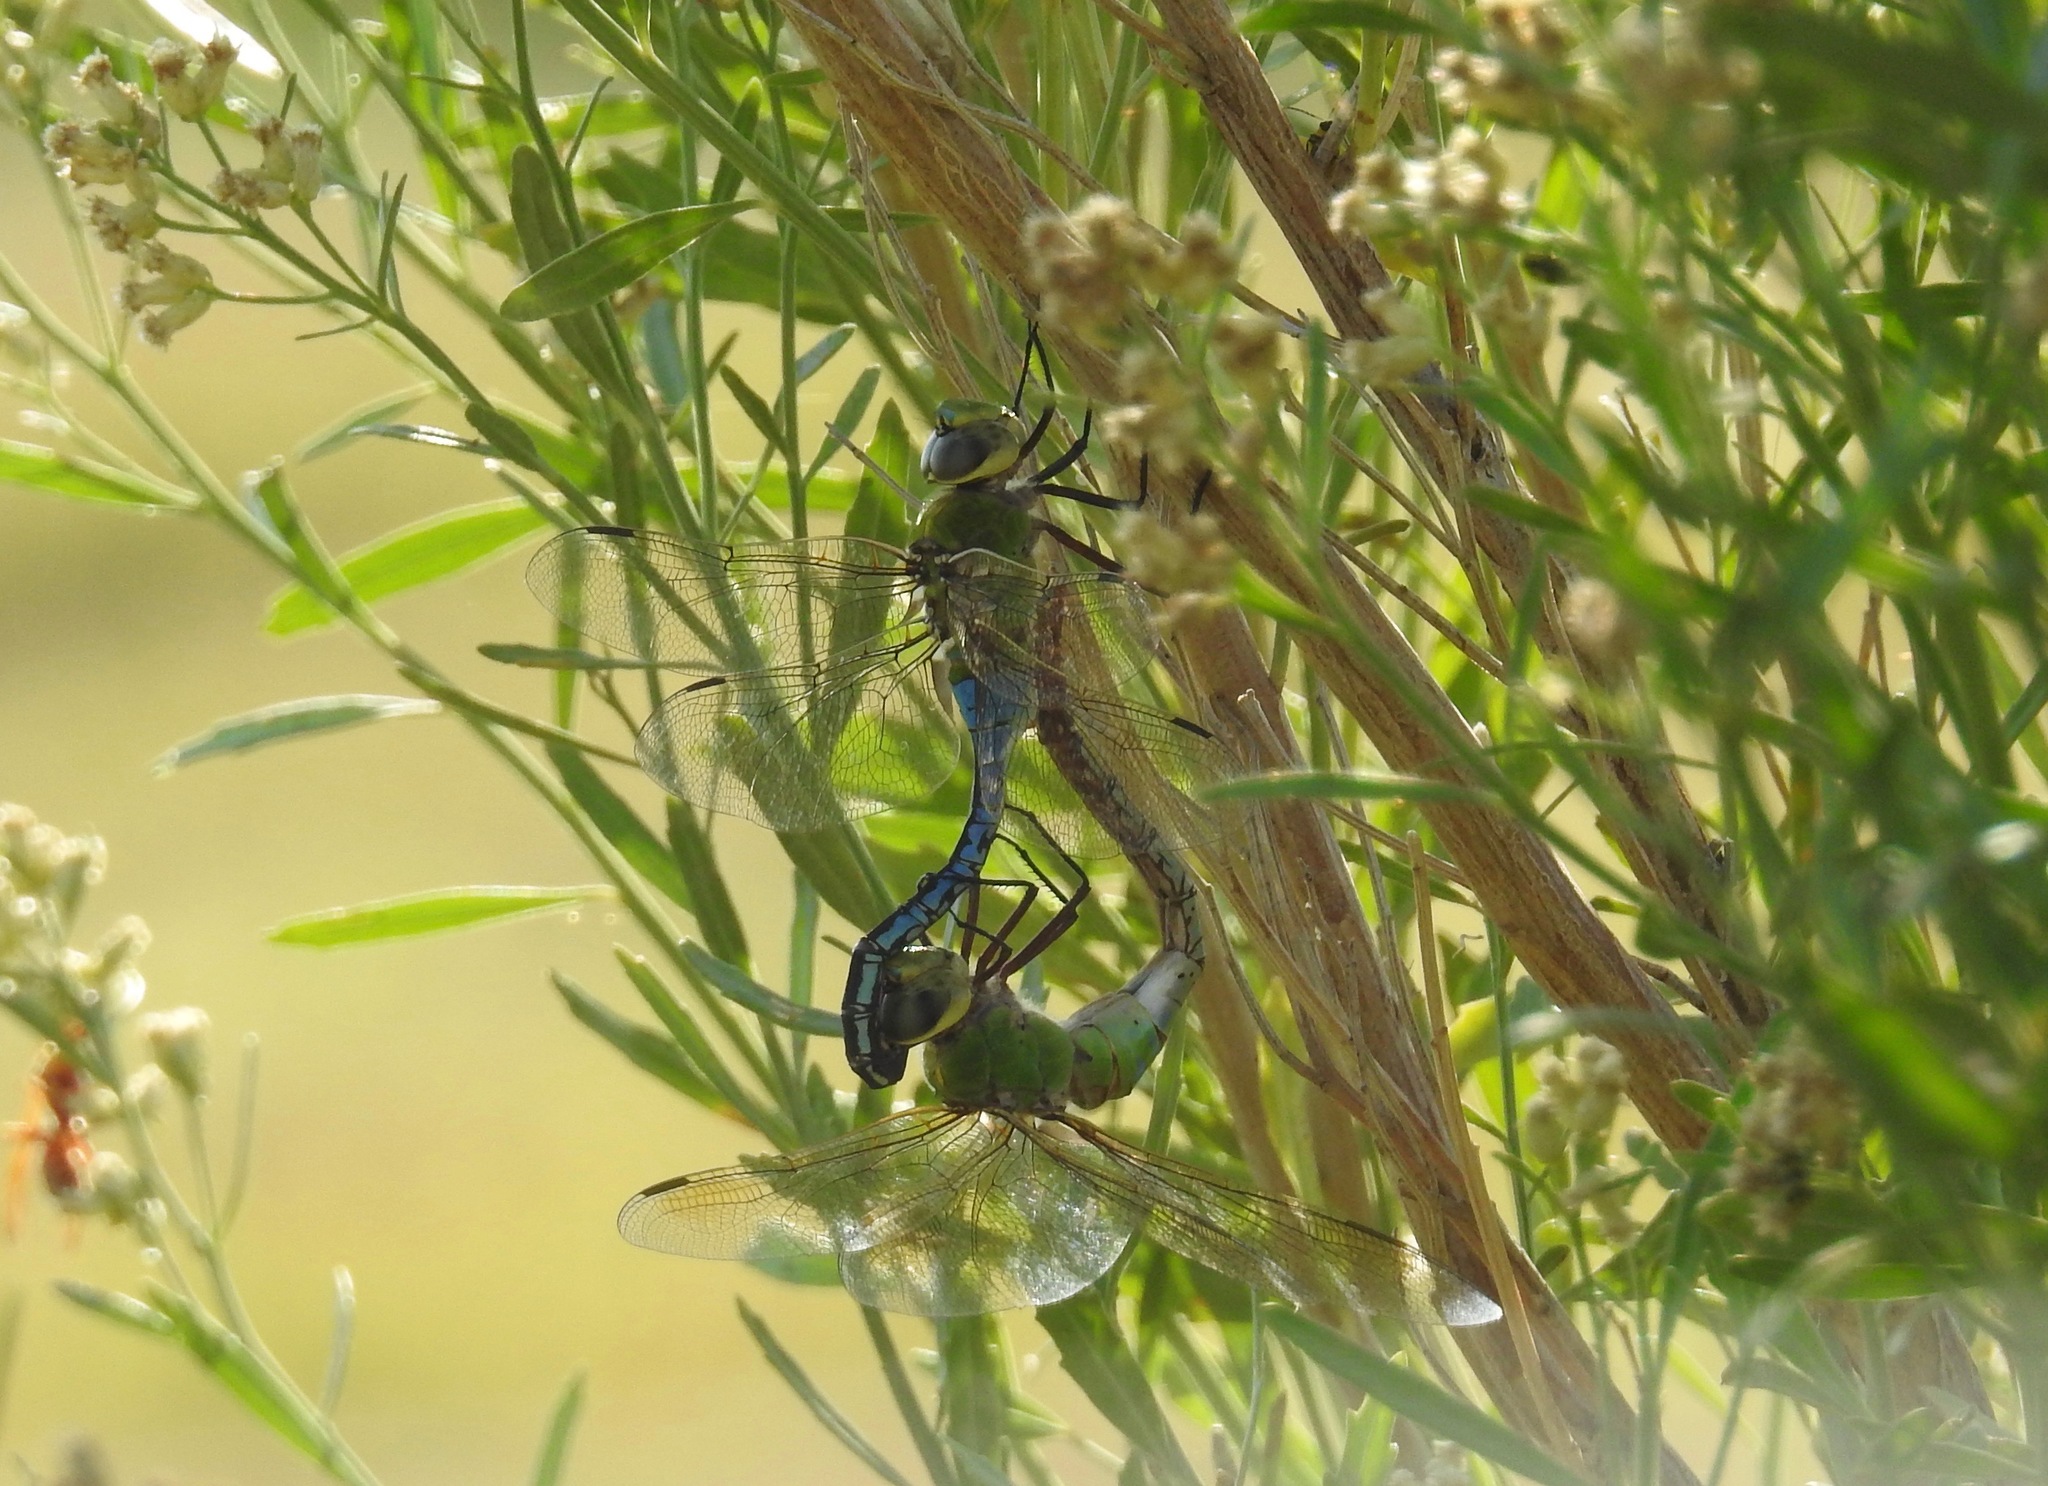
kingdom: Animalia
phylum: Arthropoda
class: Insecta
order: Odonata
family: Aeshnidae
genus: Anax
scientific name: Anax junius
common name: Common green darner
